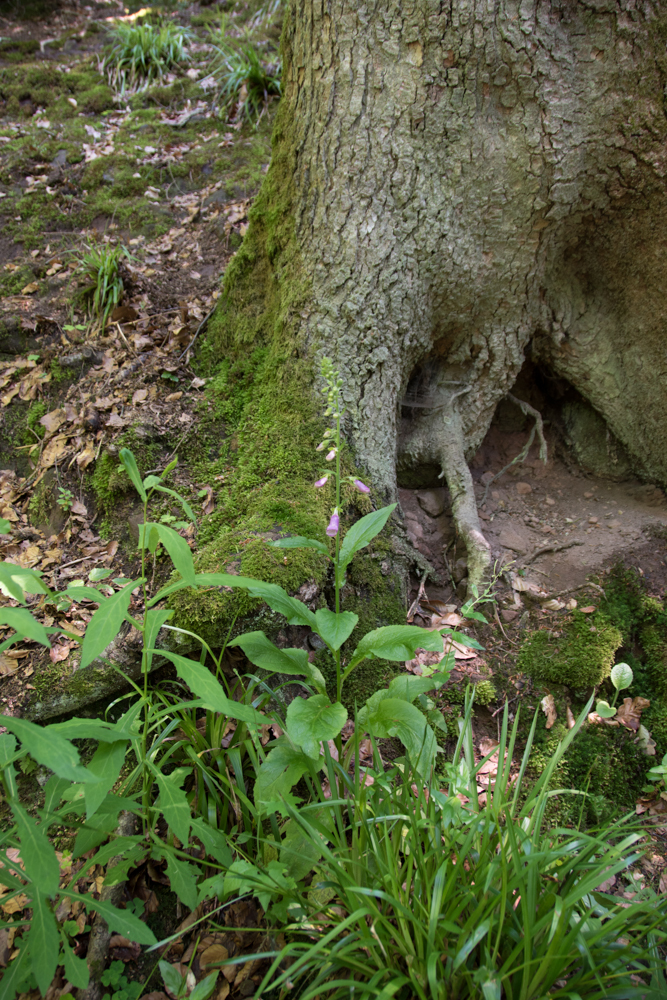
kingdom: Plantae
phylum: Tracheophyta
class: Magnoliopsida
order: Lamiales
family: Plantaginaceae
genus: Digitalis
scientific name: Digitalis purpurea
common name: Foxglove
